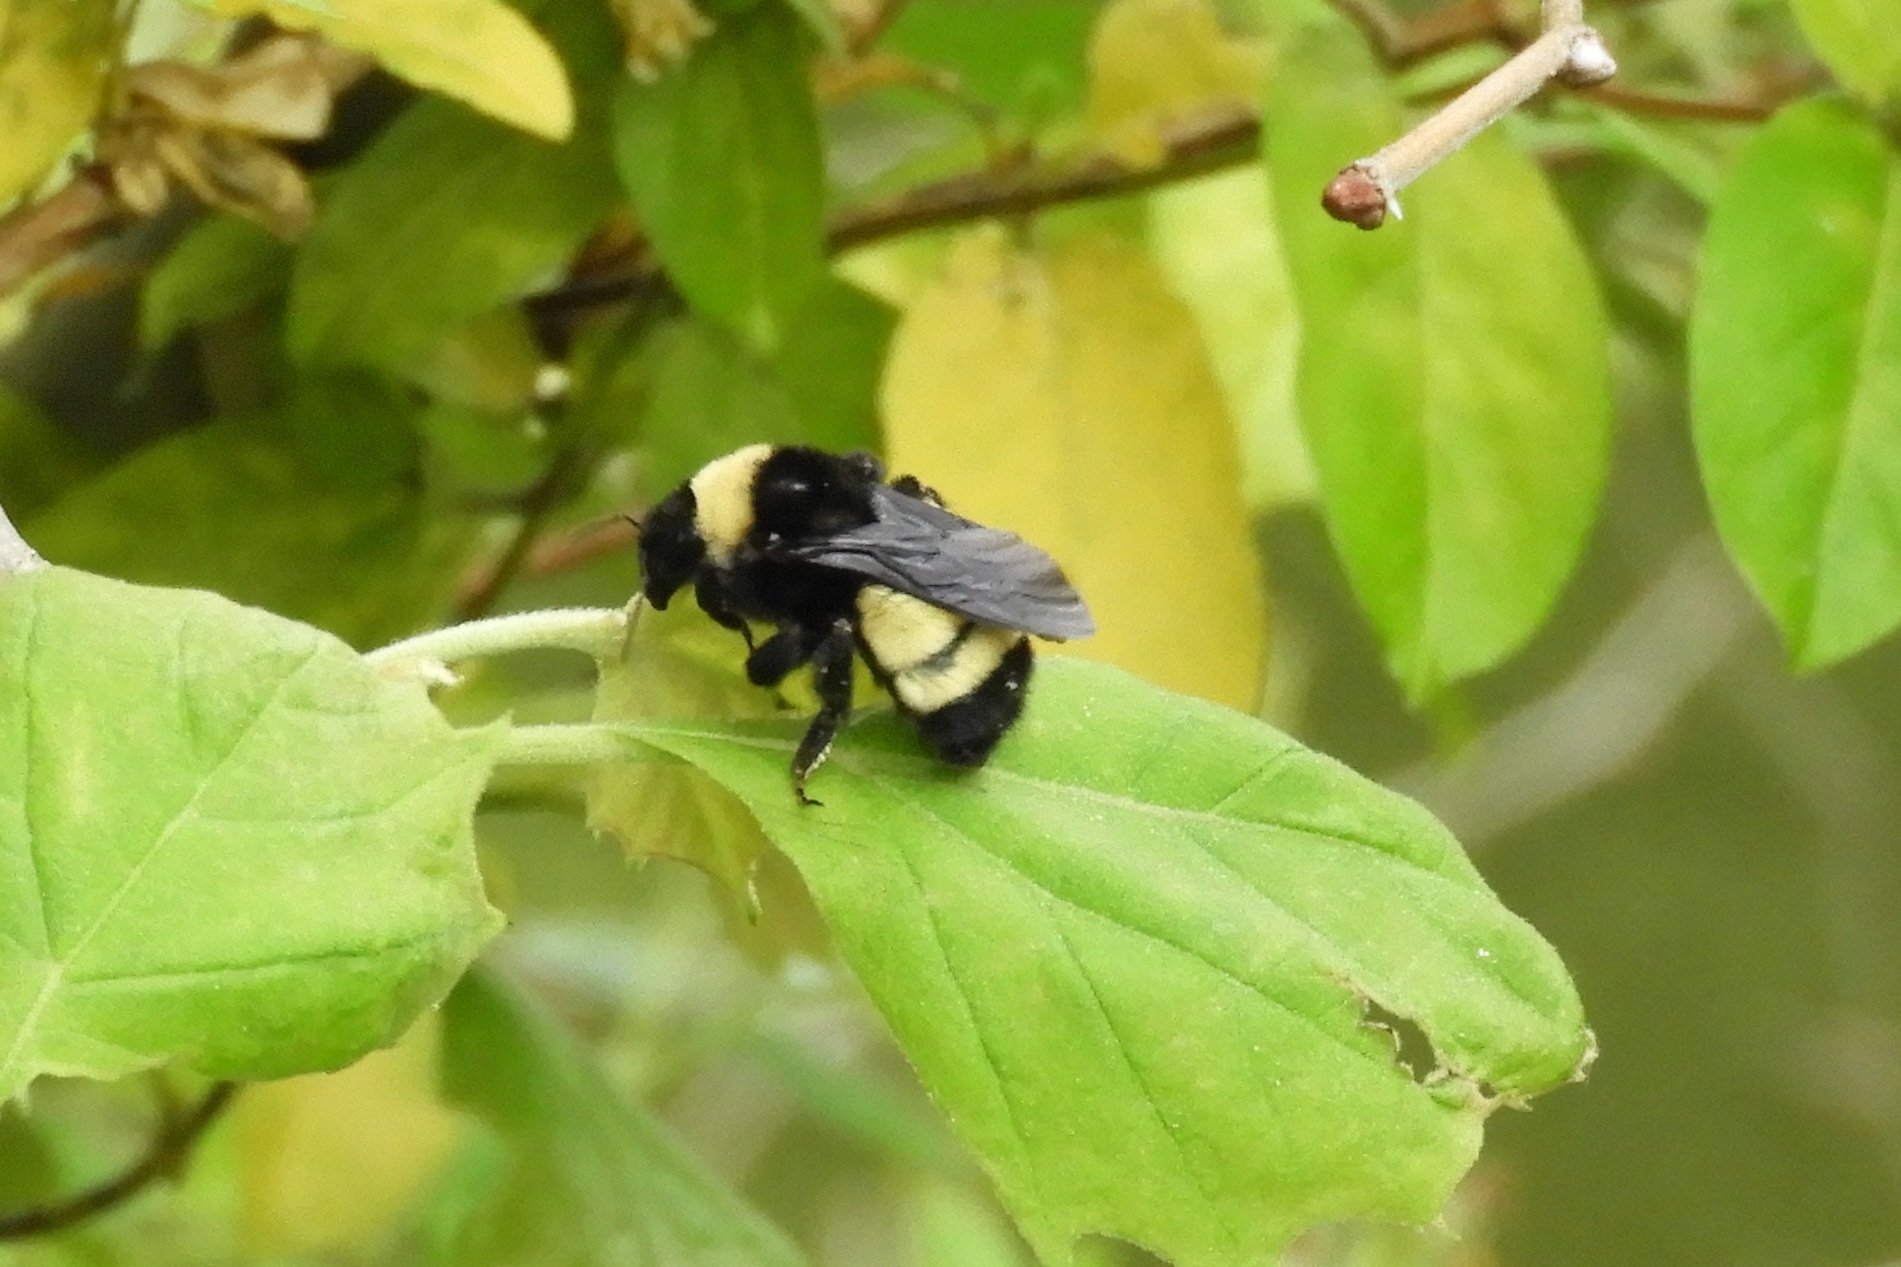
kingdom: Animalia
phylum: Arthropoda
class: Insecta
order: Hymenoptera
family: Apidae
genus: Bombus
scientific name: Bombus pensylvanicus
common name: Bumble bee
